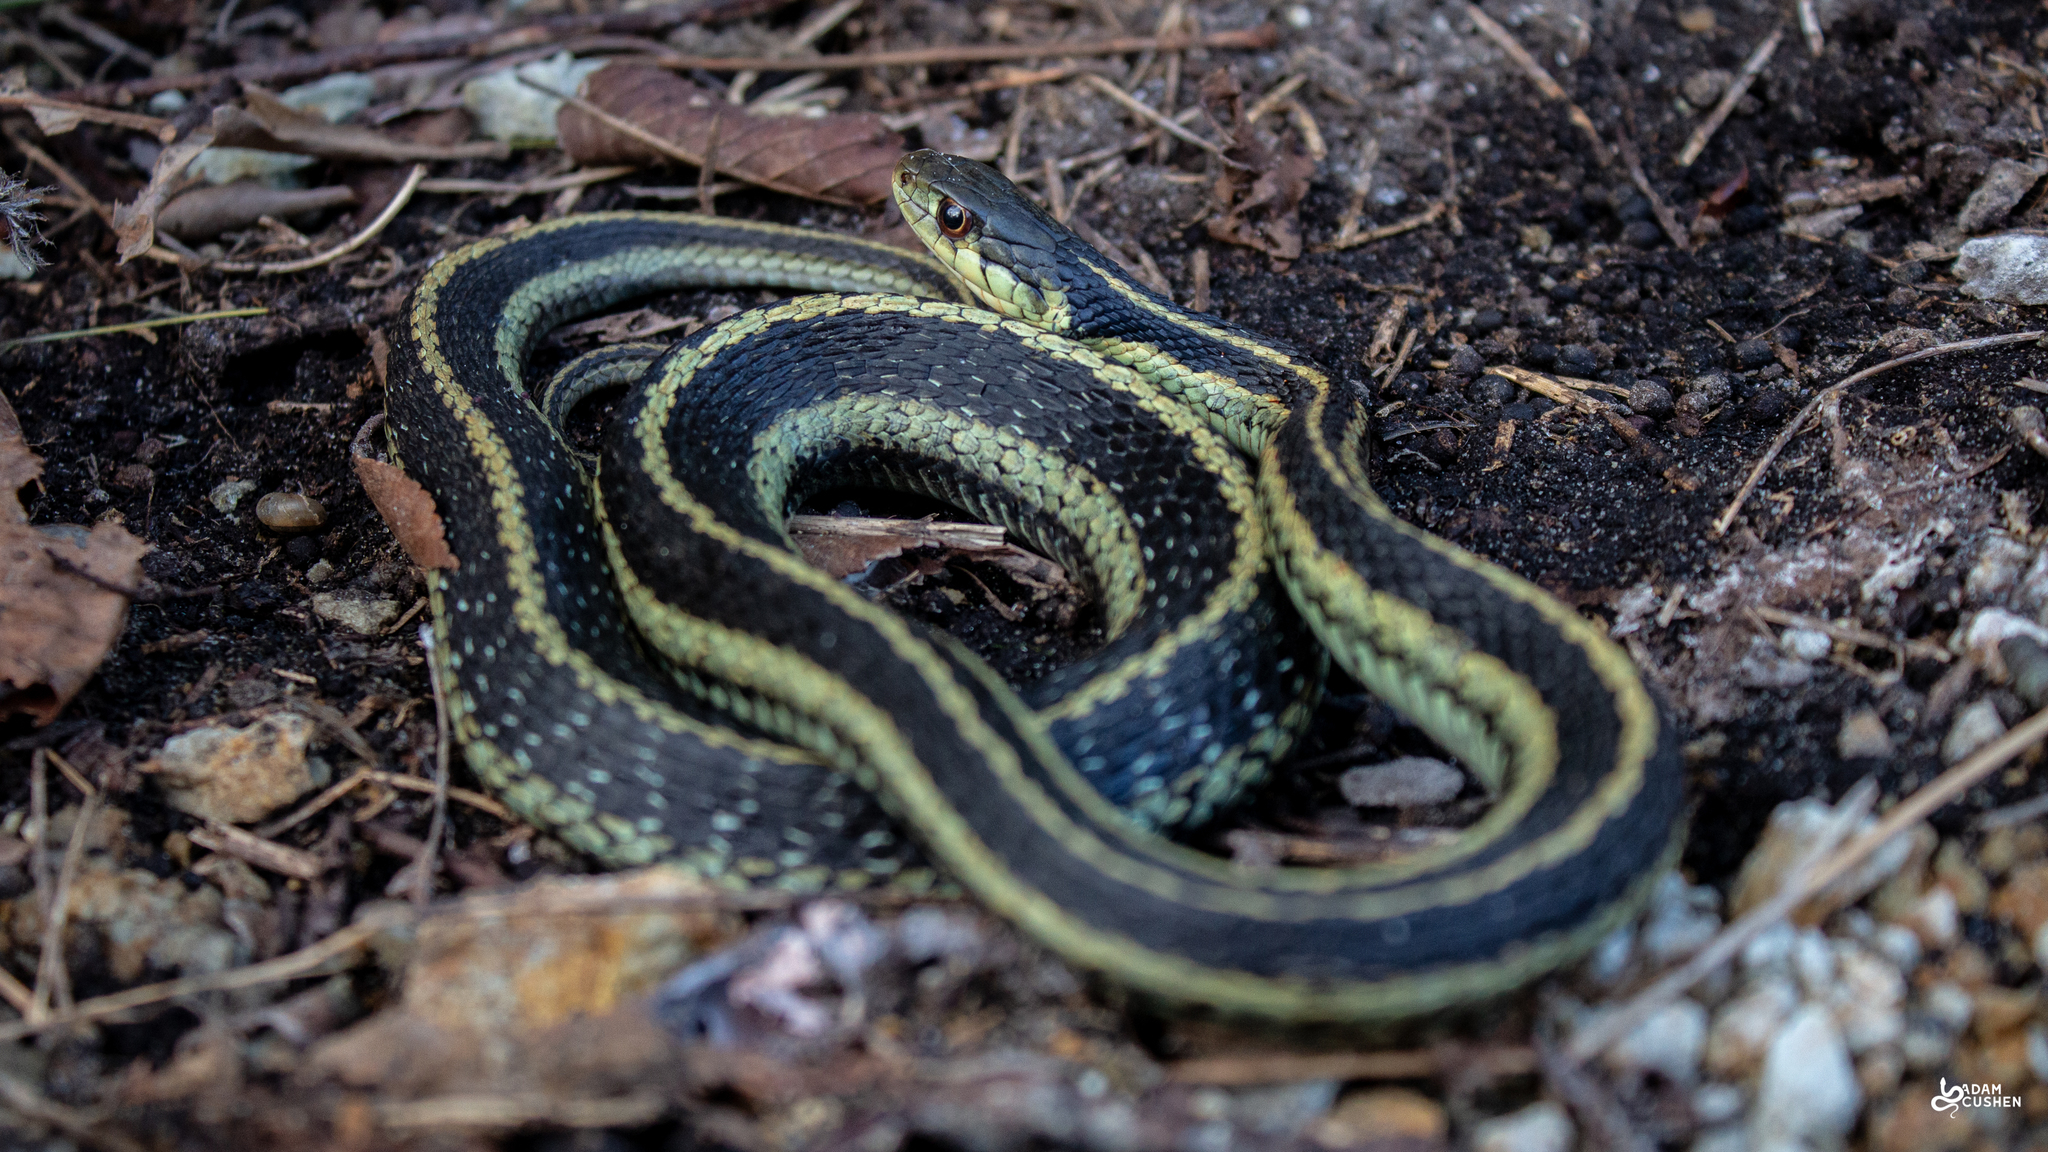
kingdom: Animalia
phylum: Chordata
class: Squamata
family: Colubridae
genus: Thamnophis
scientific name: Thamnophis sirtalis
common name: Common garter snake
